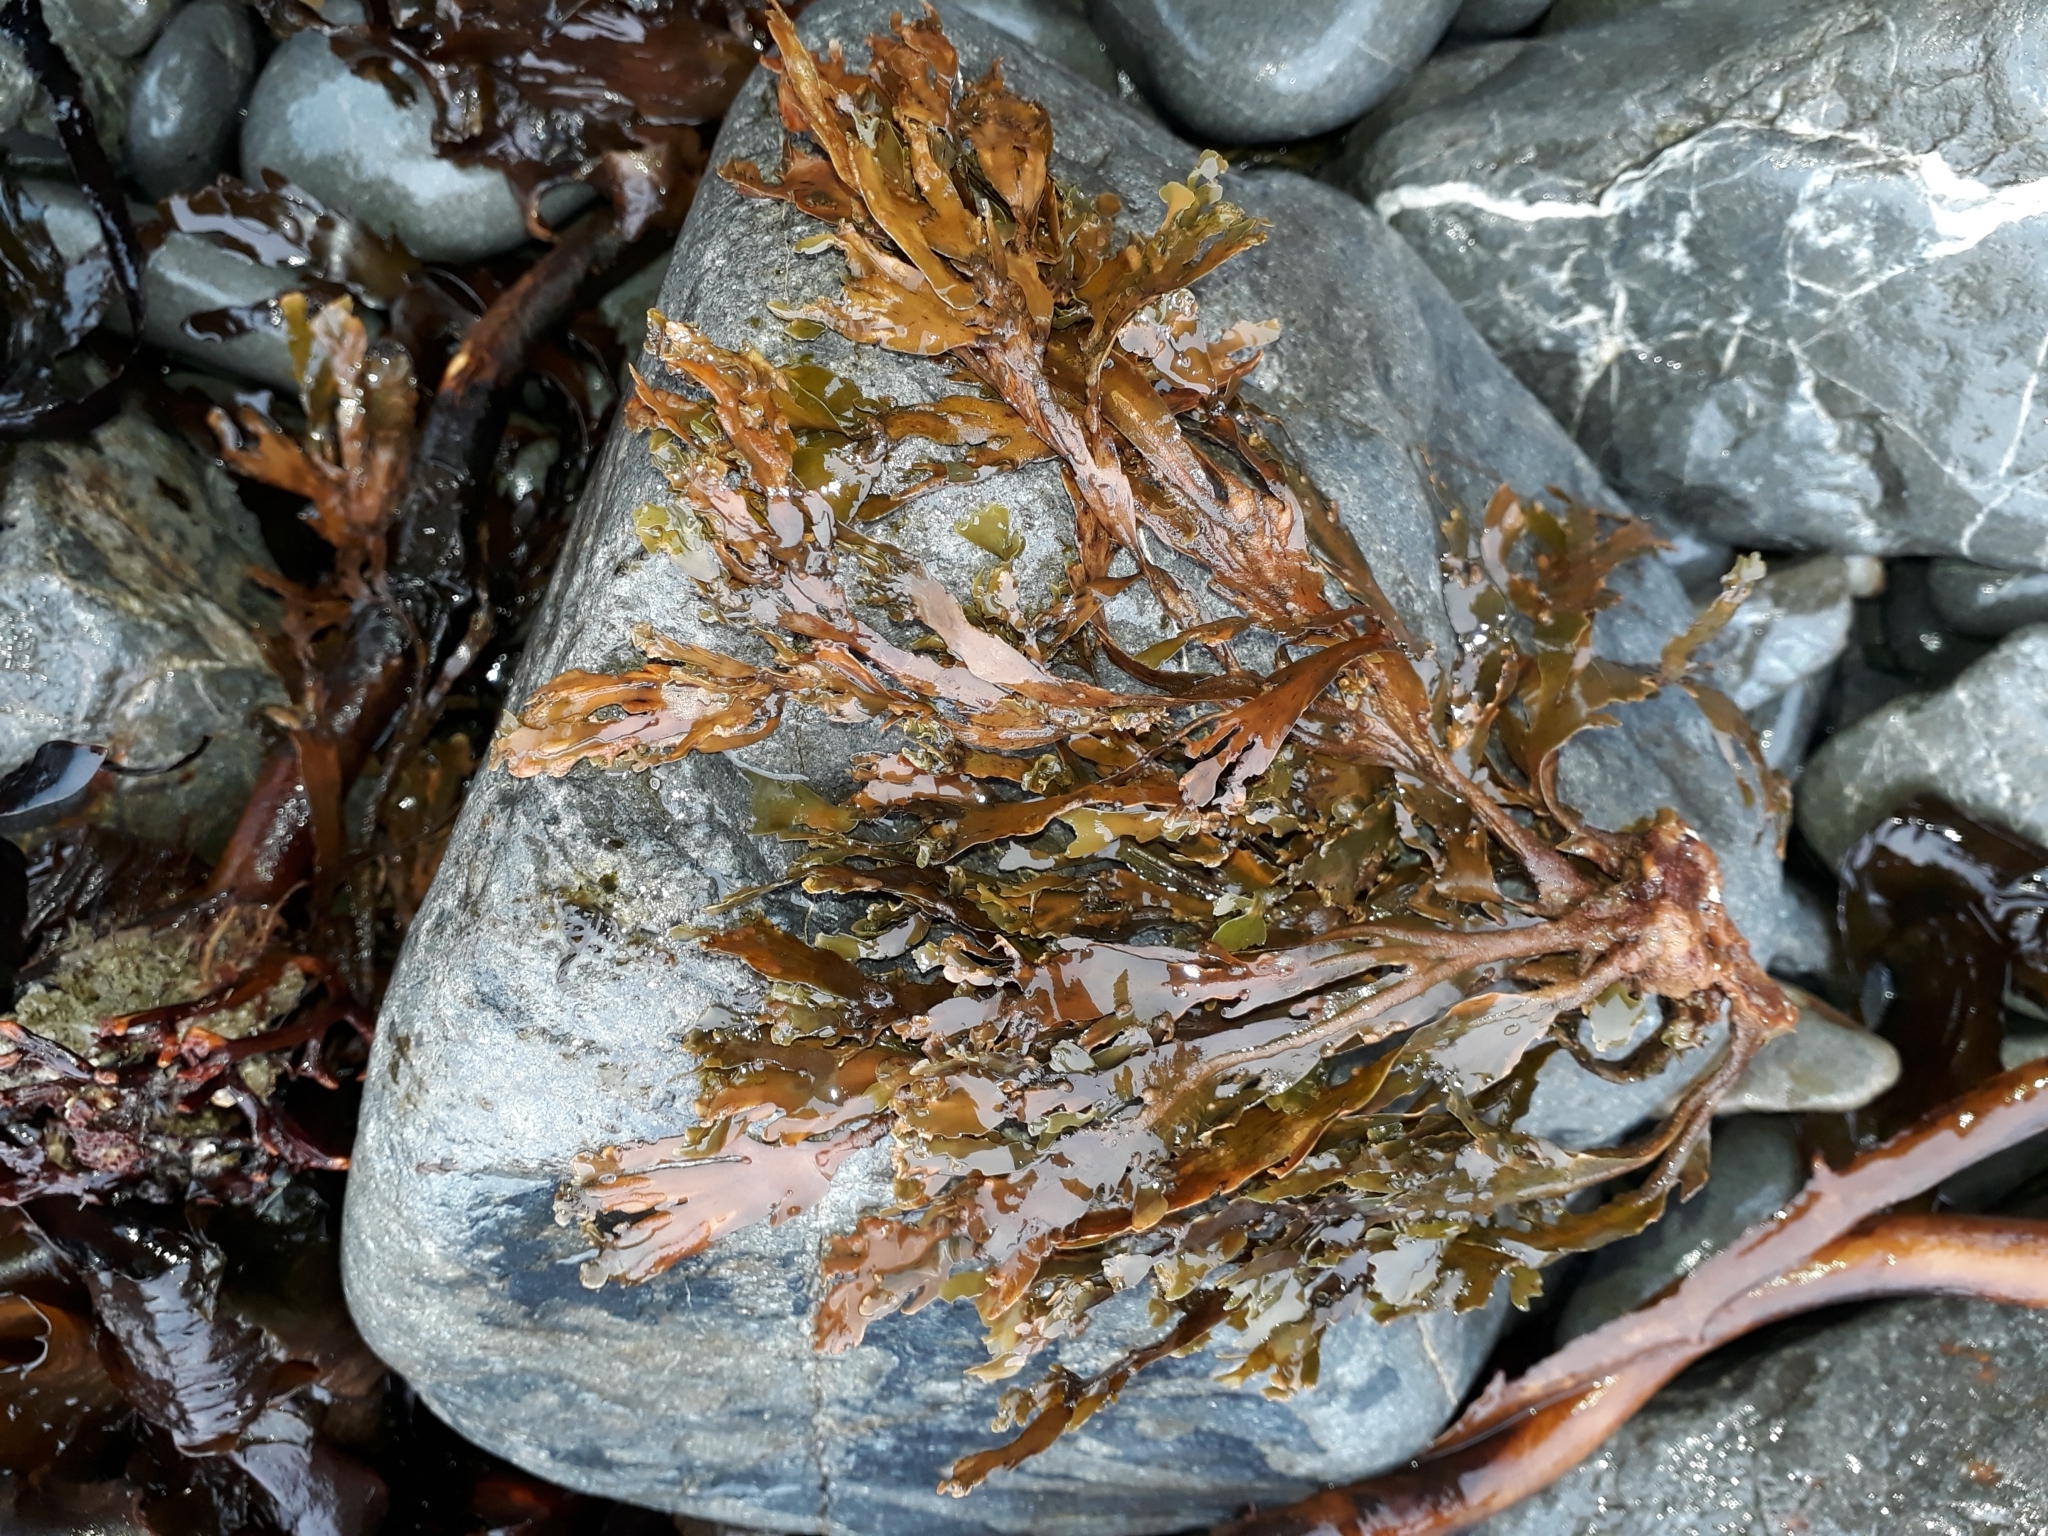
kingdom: Chromista
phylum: Ochrophyta
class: Phaeophyceae
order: Dictyotales
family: Dictyotaceae
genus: Zonaria
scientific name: Zonaria turneriana
